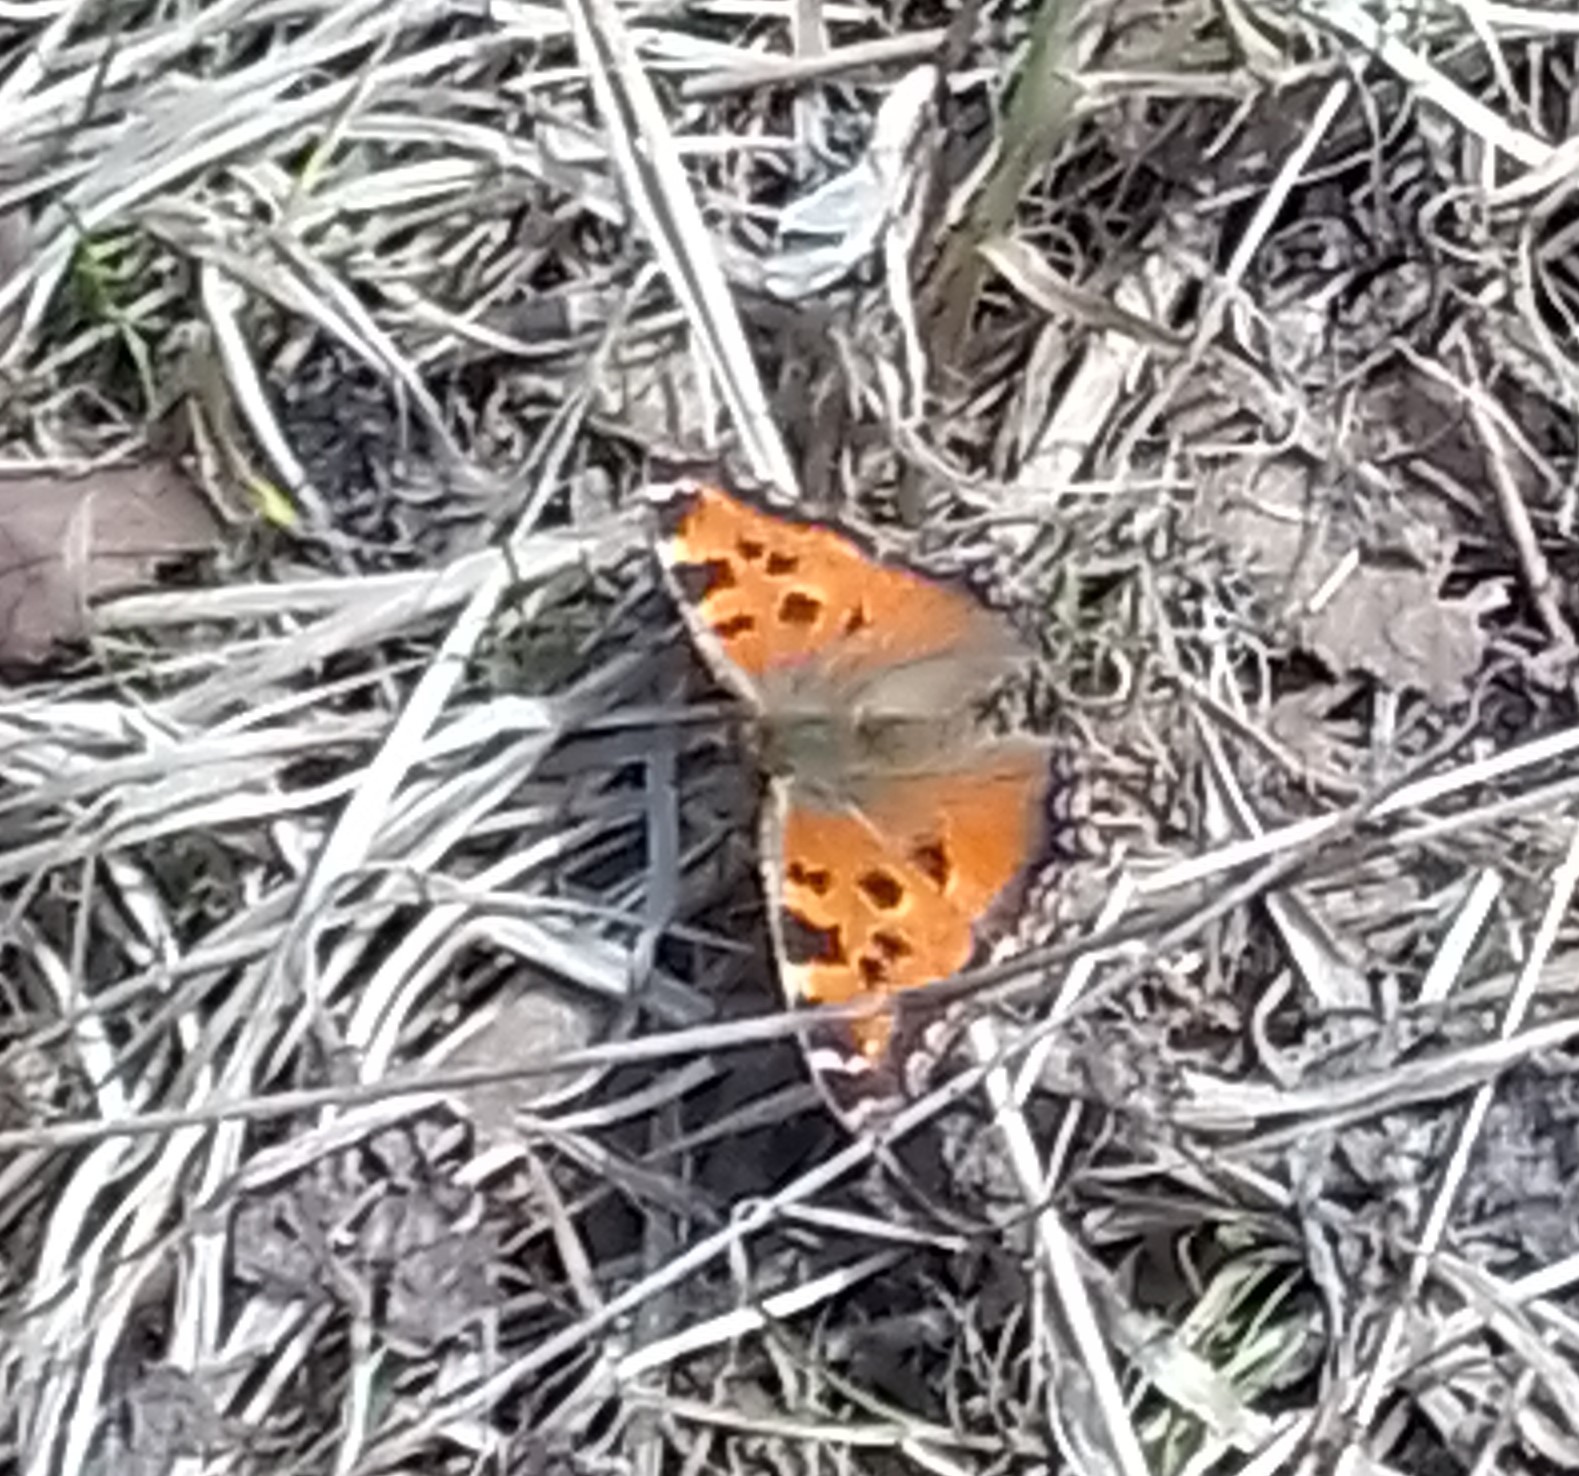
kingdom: Animalia
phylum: Arthropoda
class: Insecta
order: Lepidoptera
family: Nymphalidae
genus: Nymphalis
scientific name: Nymphalis xanthomelas
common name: Scarce tortoiseshell
